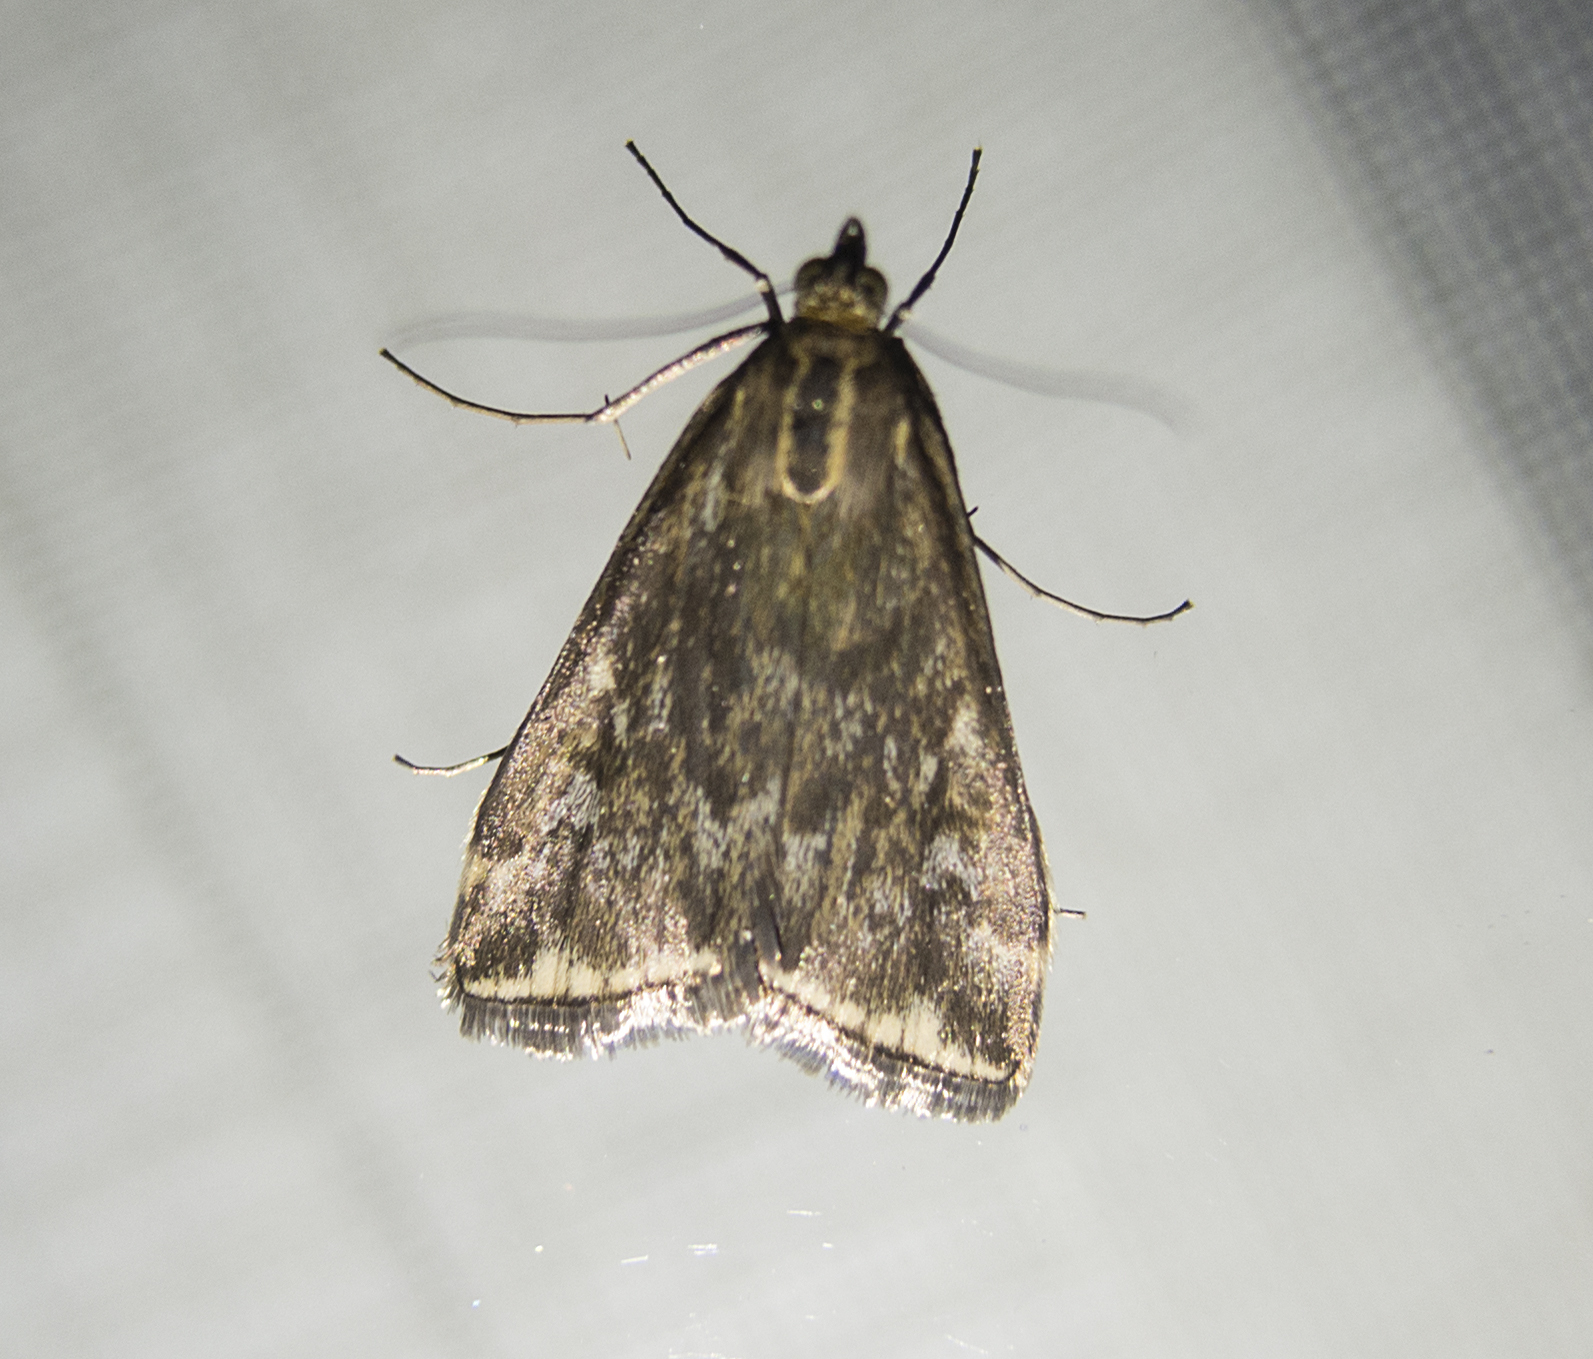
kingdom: Animalia
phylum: Arthropoda
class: Insecta
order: Lepidoptera
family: Crambidae
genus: Loxostege
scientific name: Loxostege sticticalis
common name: Crambid moth
